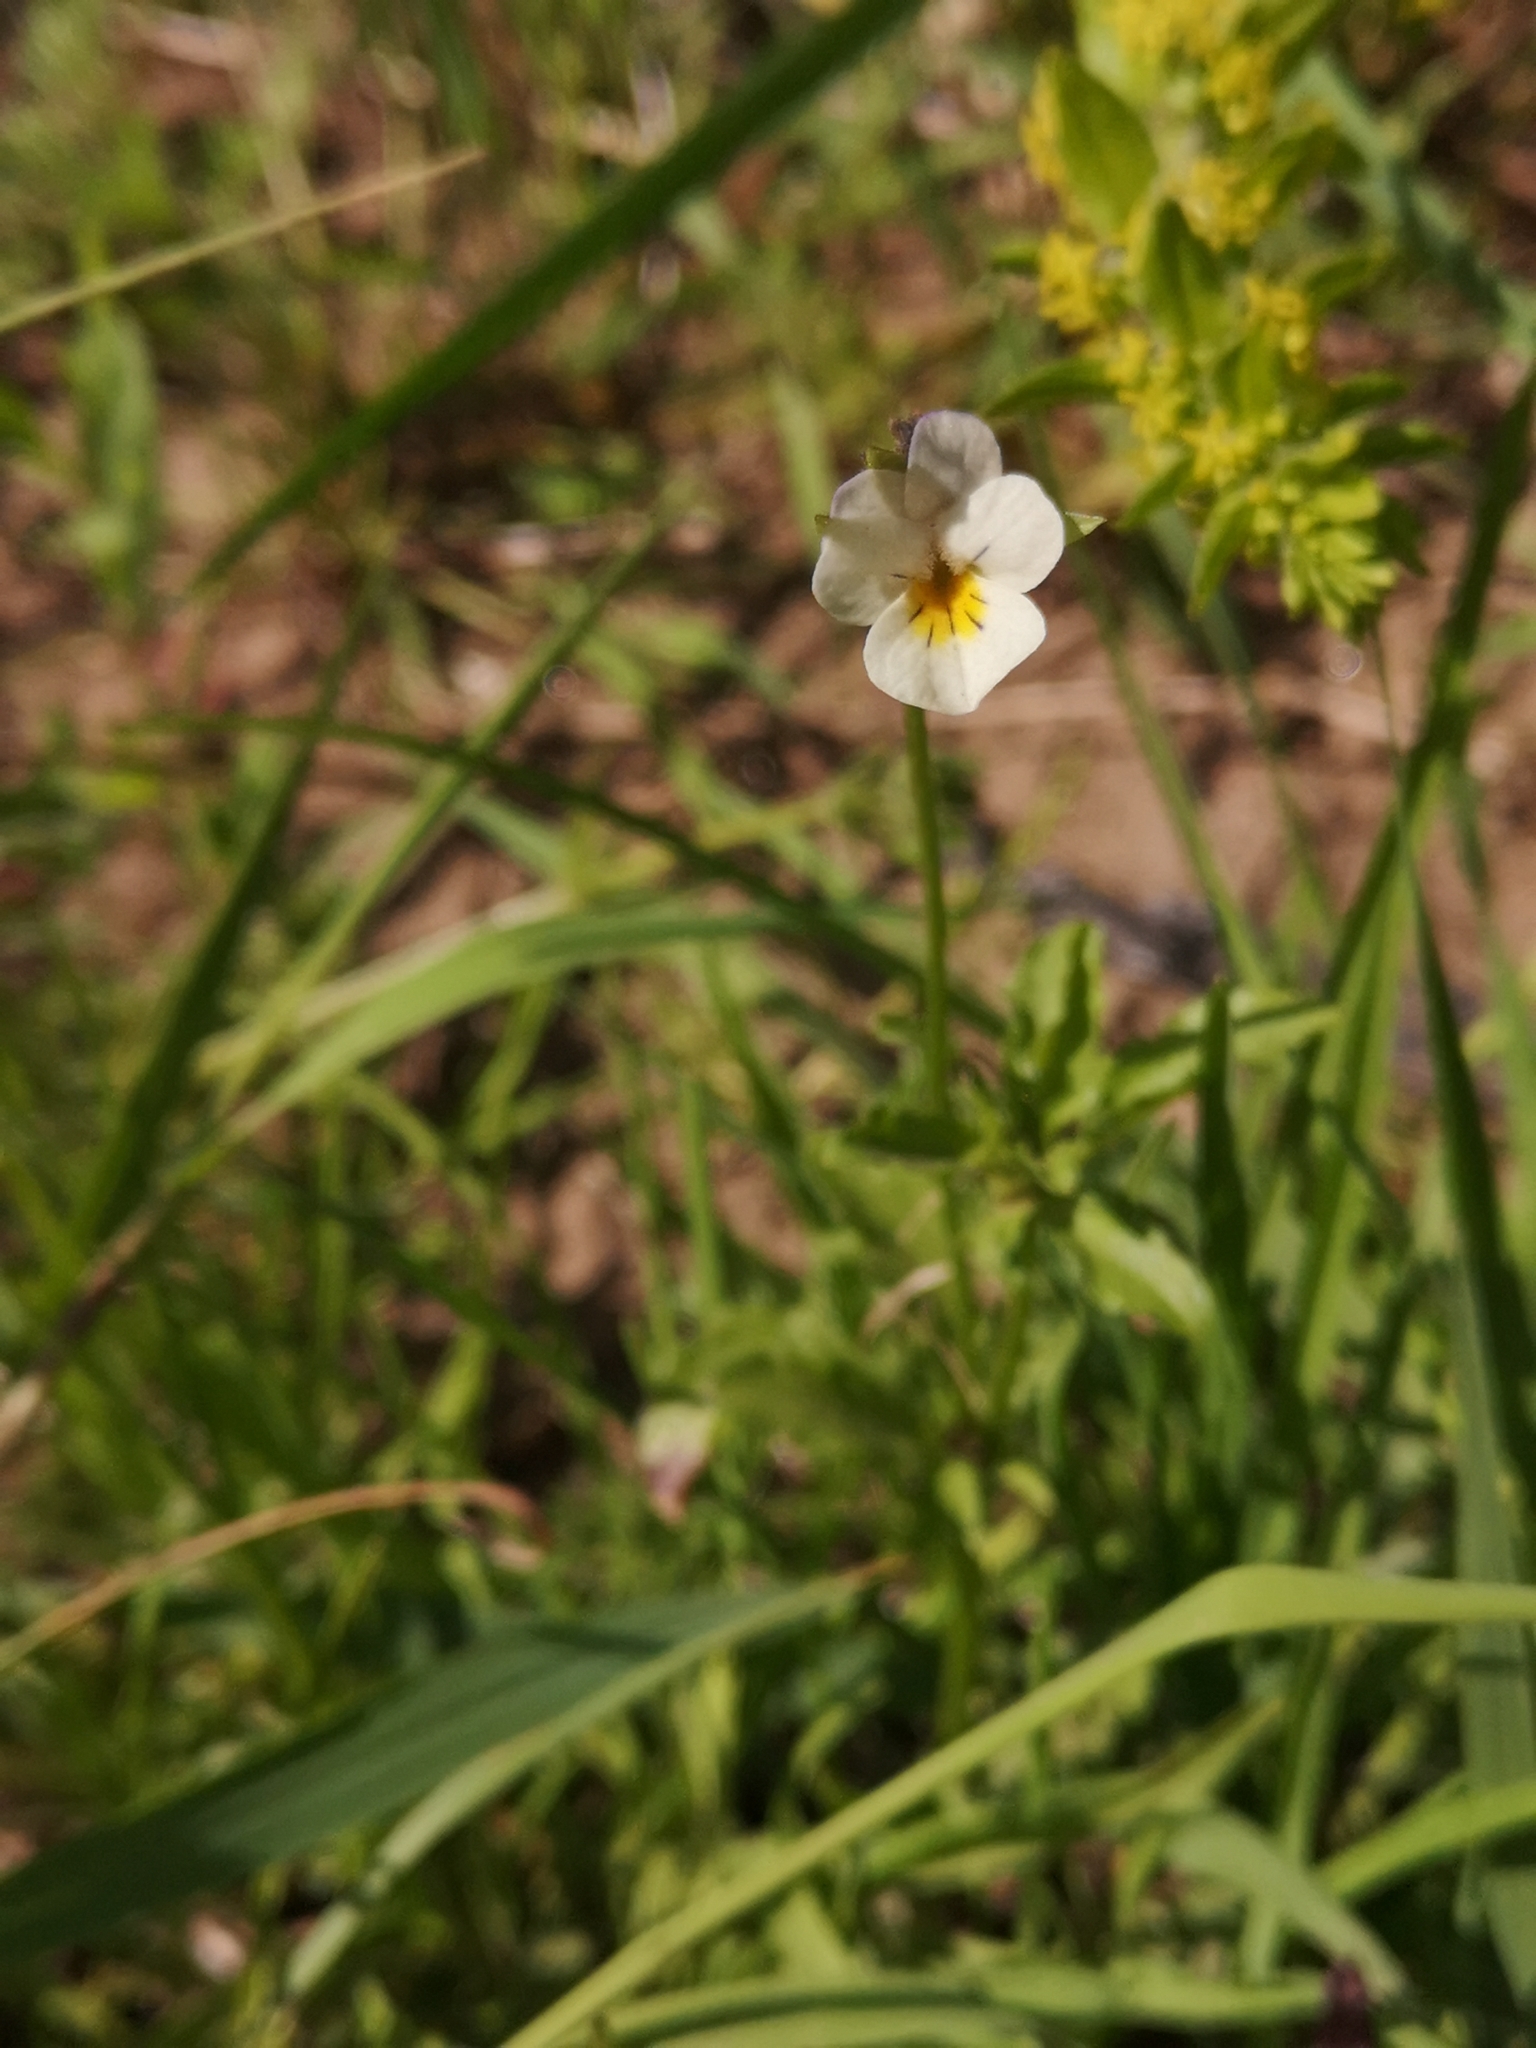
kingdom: Plantae
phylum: Tracheophyta
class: Magnoliopsida
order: Malpighiales
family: Violaceae
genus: Viola
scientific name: Viola arvensis
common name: Field pansy
